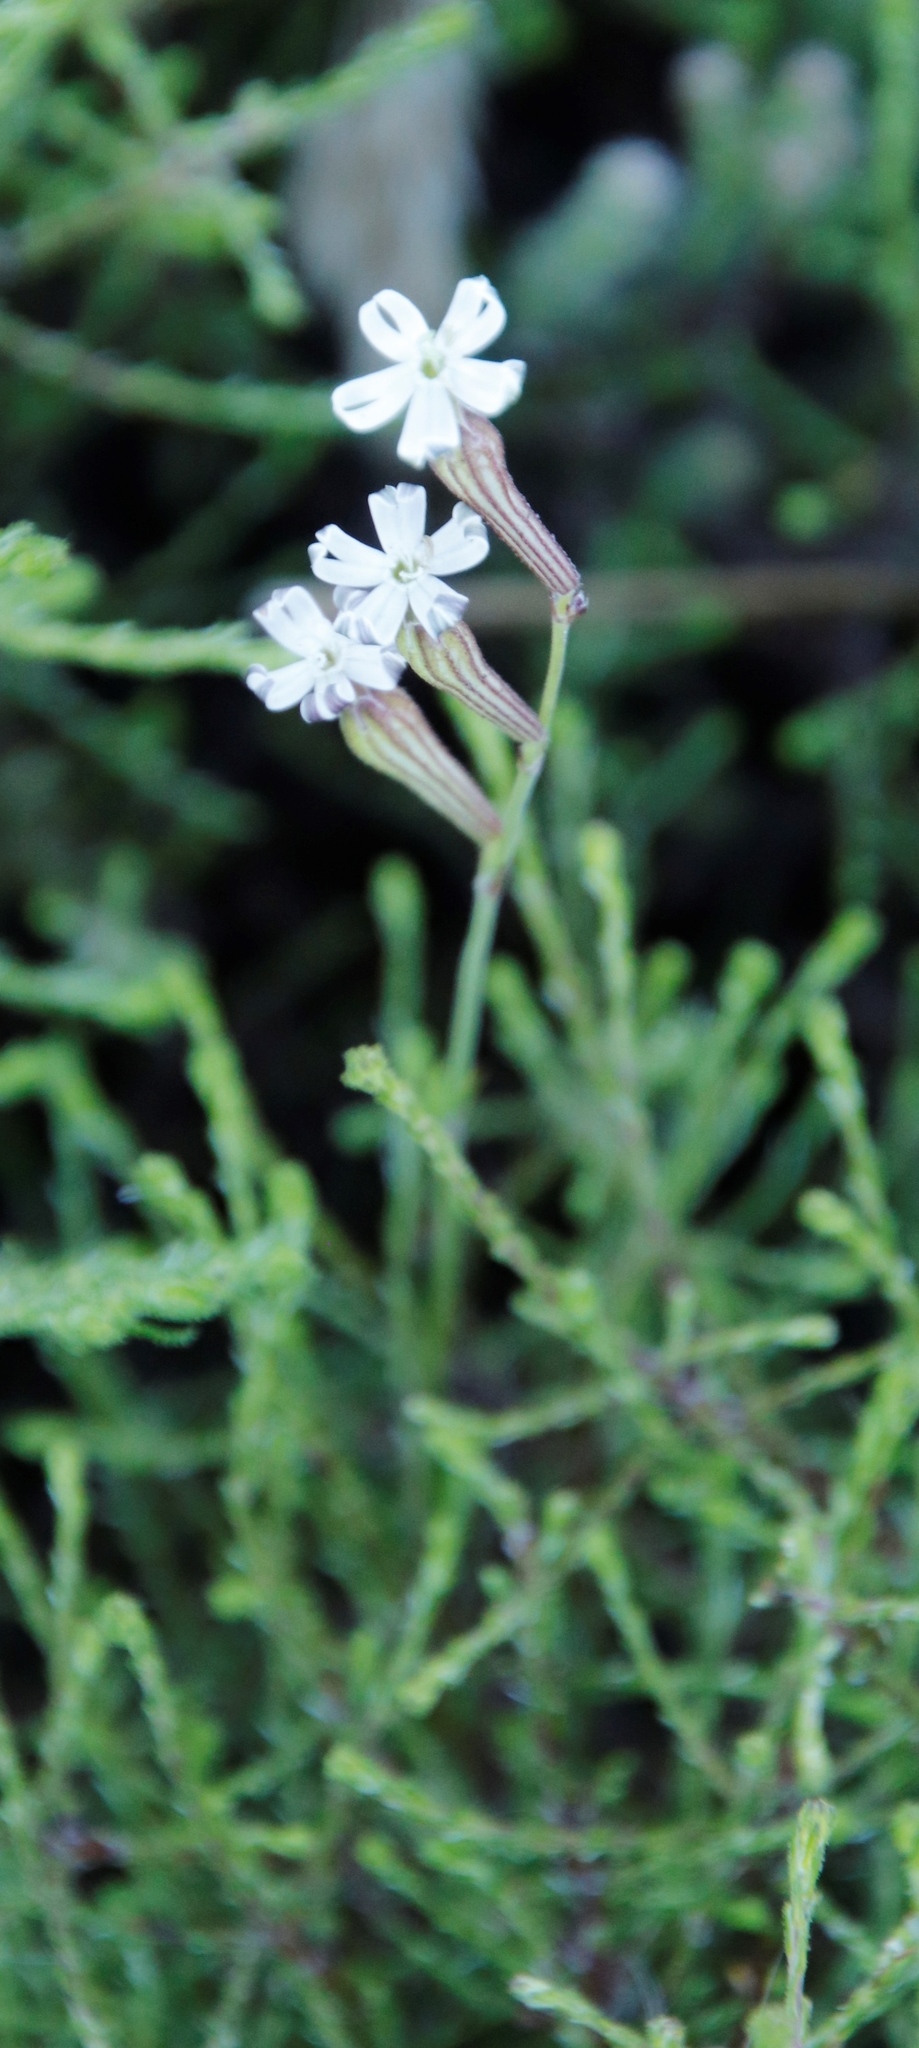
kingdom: Plantae
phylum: Tracheophyta
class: Magnoliopsida
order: Caryophyllales
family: Caryophyllaceae
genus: Silene
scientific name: Silene burchellii
